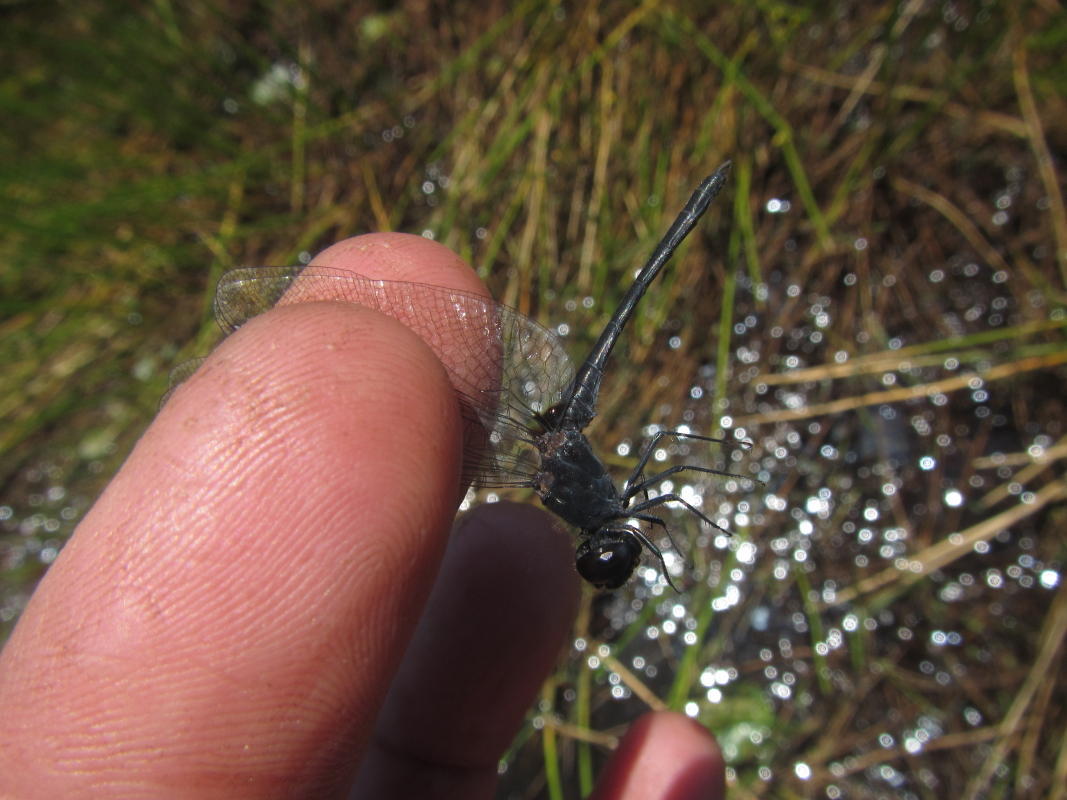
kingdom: Animalia
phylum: Arthropoda
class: Insecta
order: Odonata
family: Libellulidae
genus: Diplacodes
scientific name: Diplacodes lefebvrii
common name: Black percher
